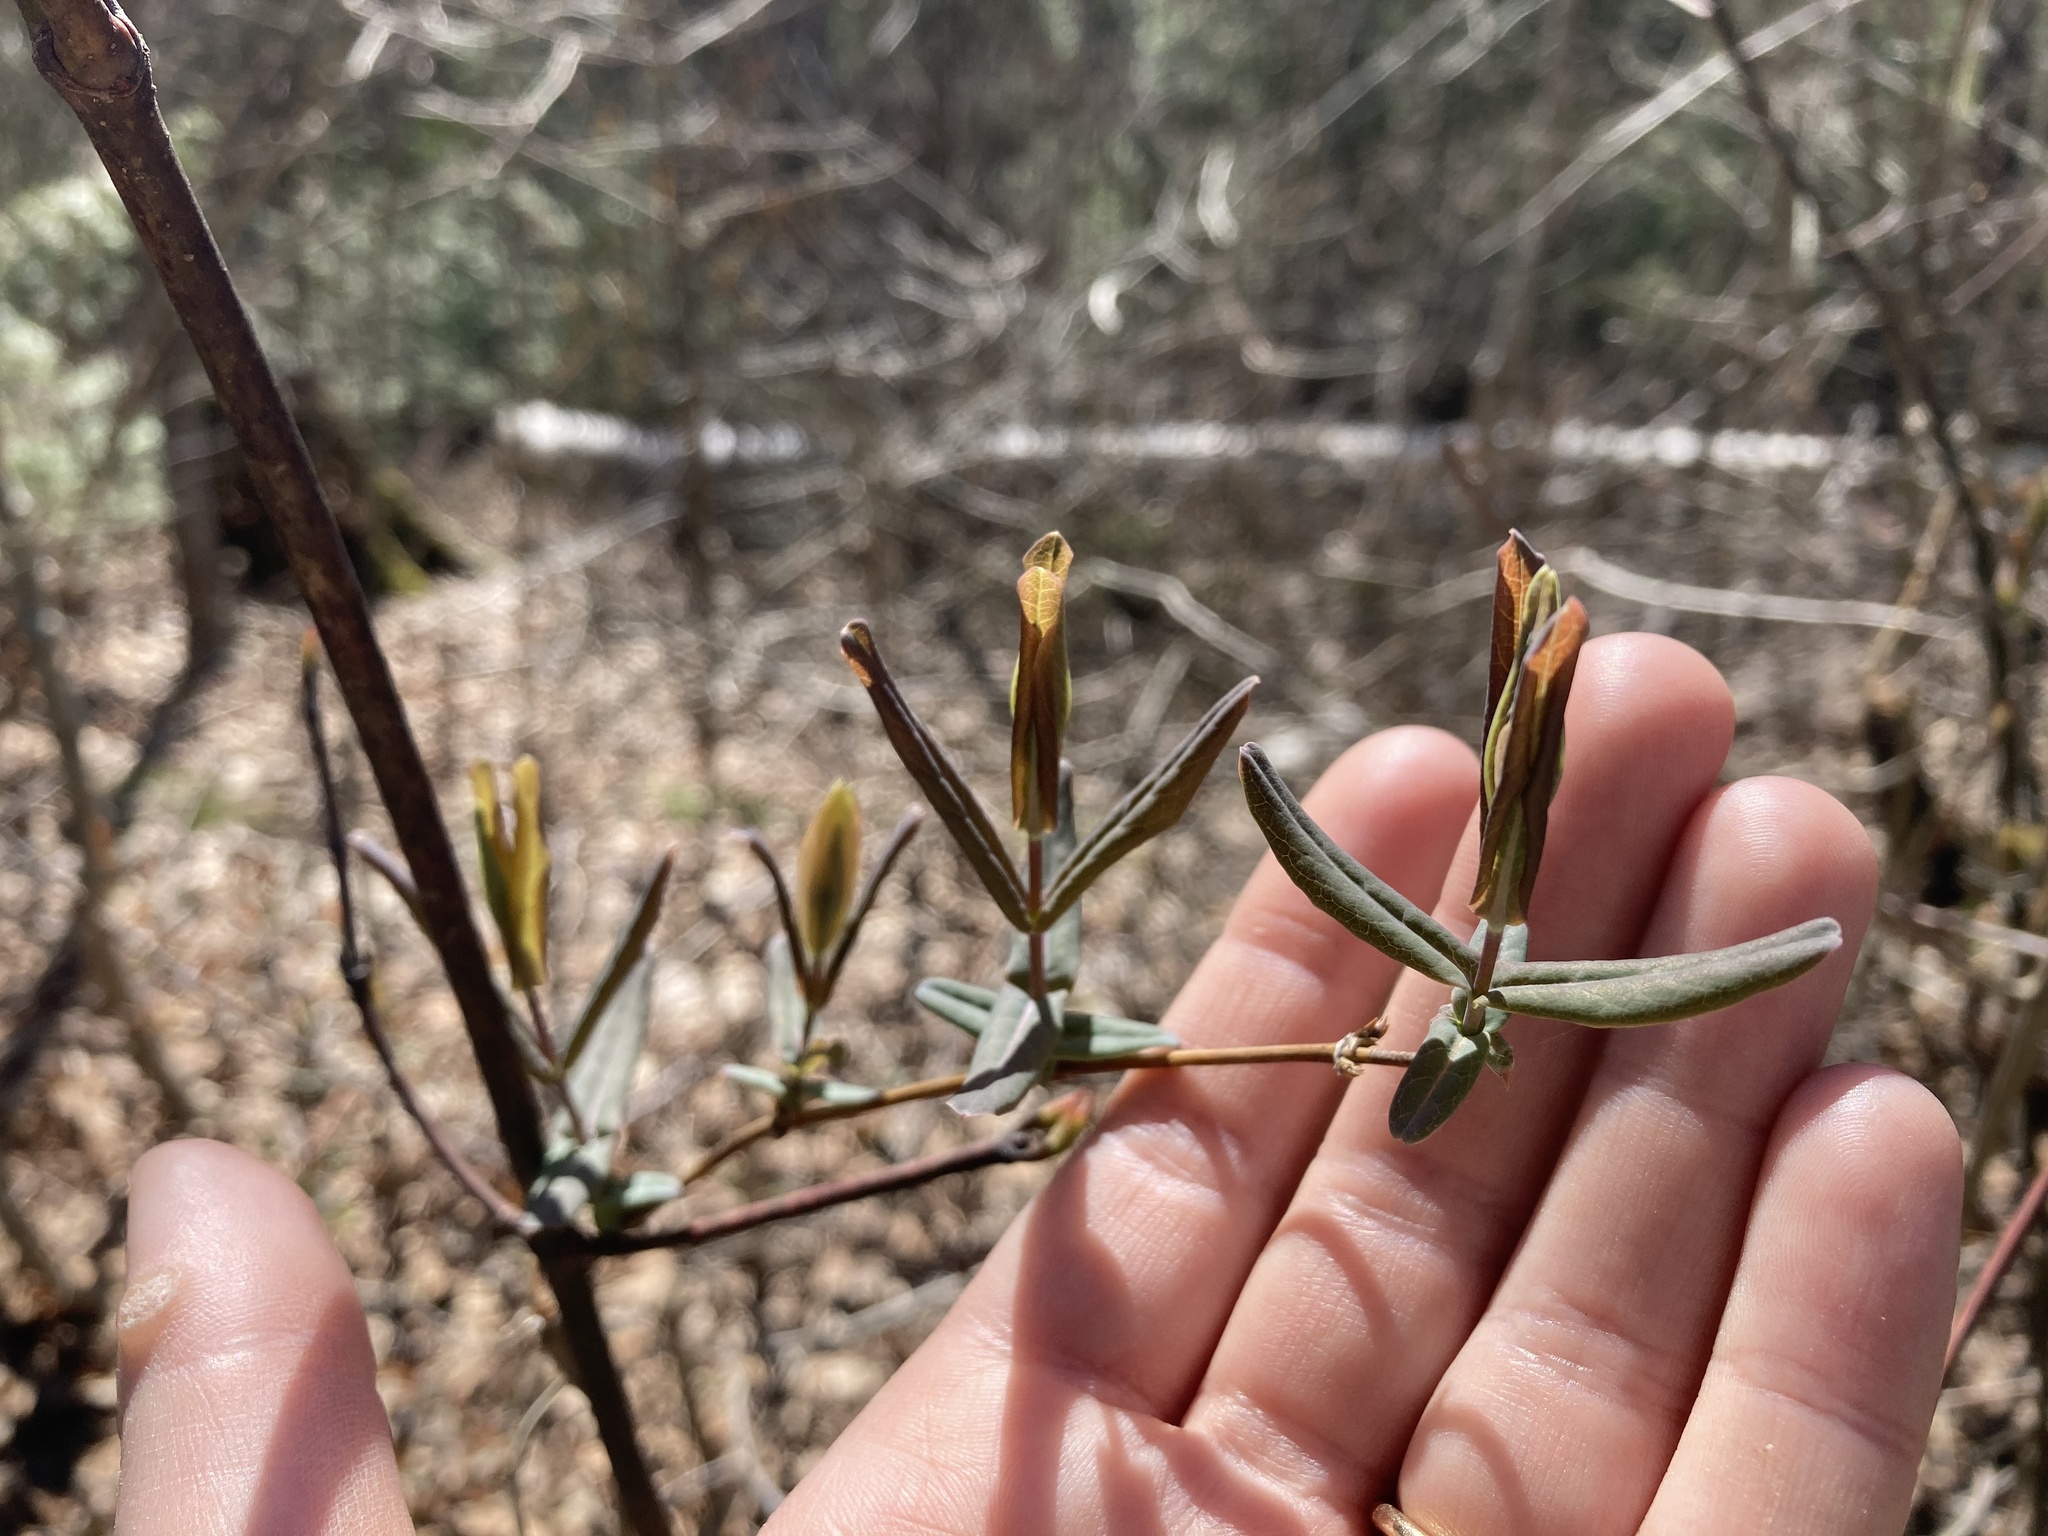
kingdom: Plantae
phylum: Tracheophyta
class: Magnoliopsida
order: Dipsacales
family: Caprifoliaceae
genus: Lonicera
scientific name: Lonicera dioica
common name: Limber honeysuckle
